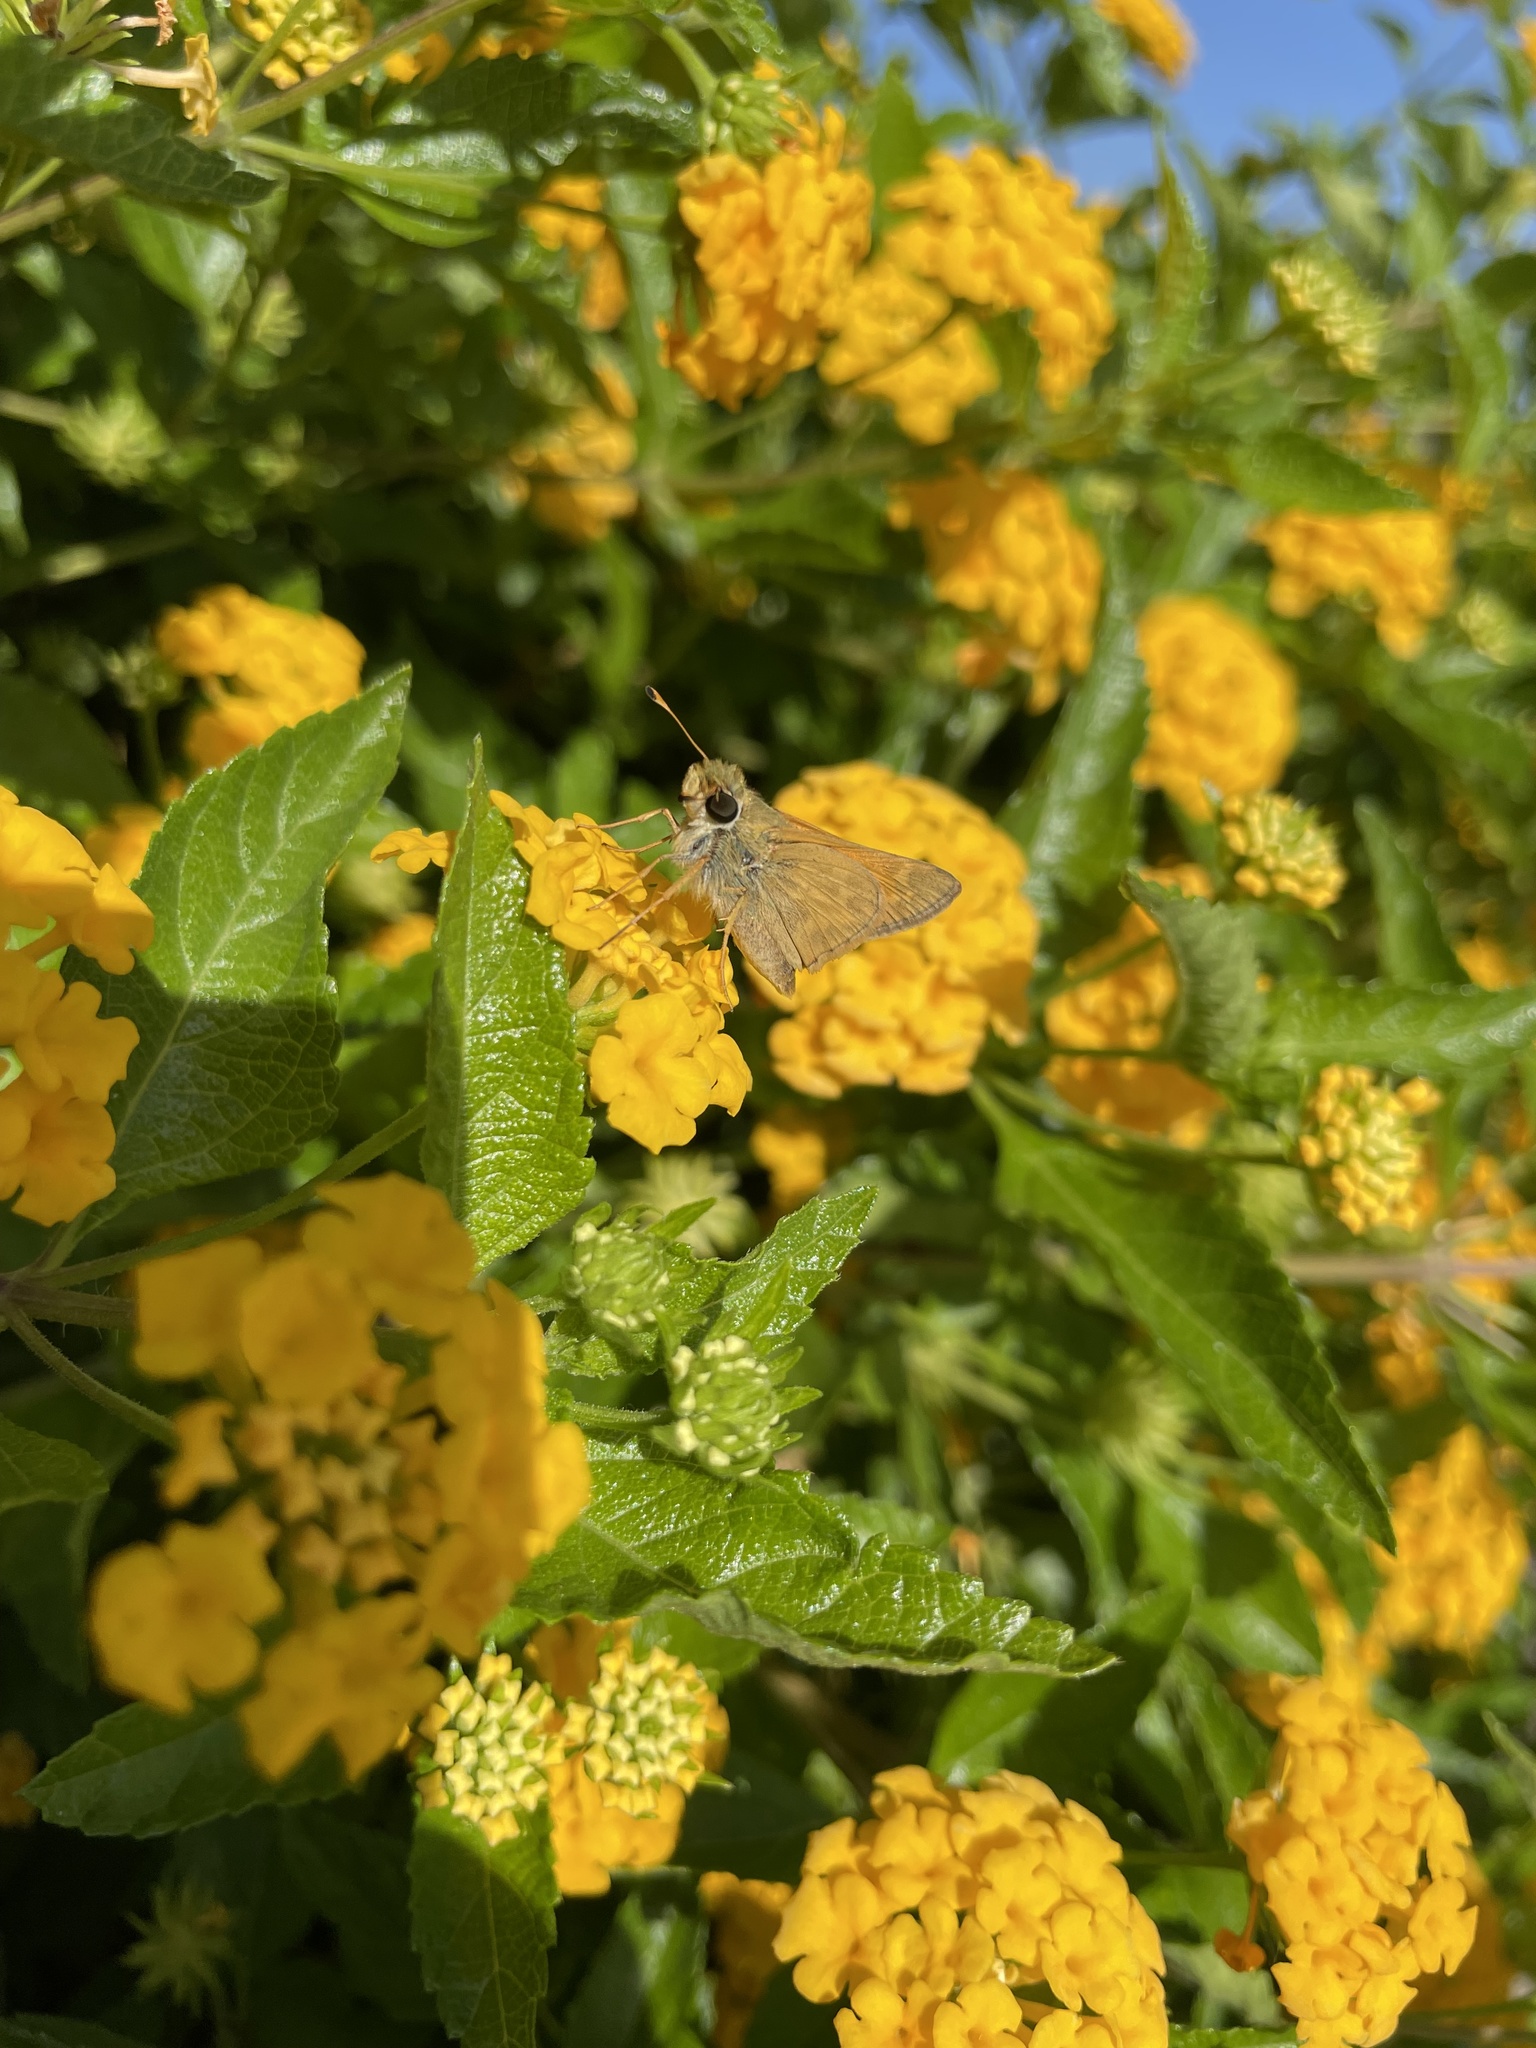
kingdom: Animalia
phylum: Arthropoda
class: Insecta
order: Lepidoptera
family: Hesperiidae
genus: Atalopedes
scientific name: Atalopedes
